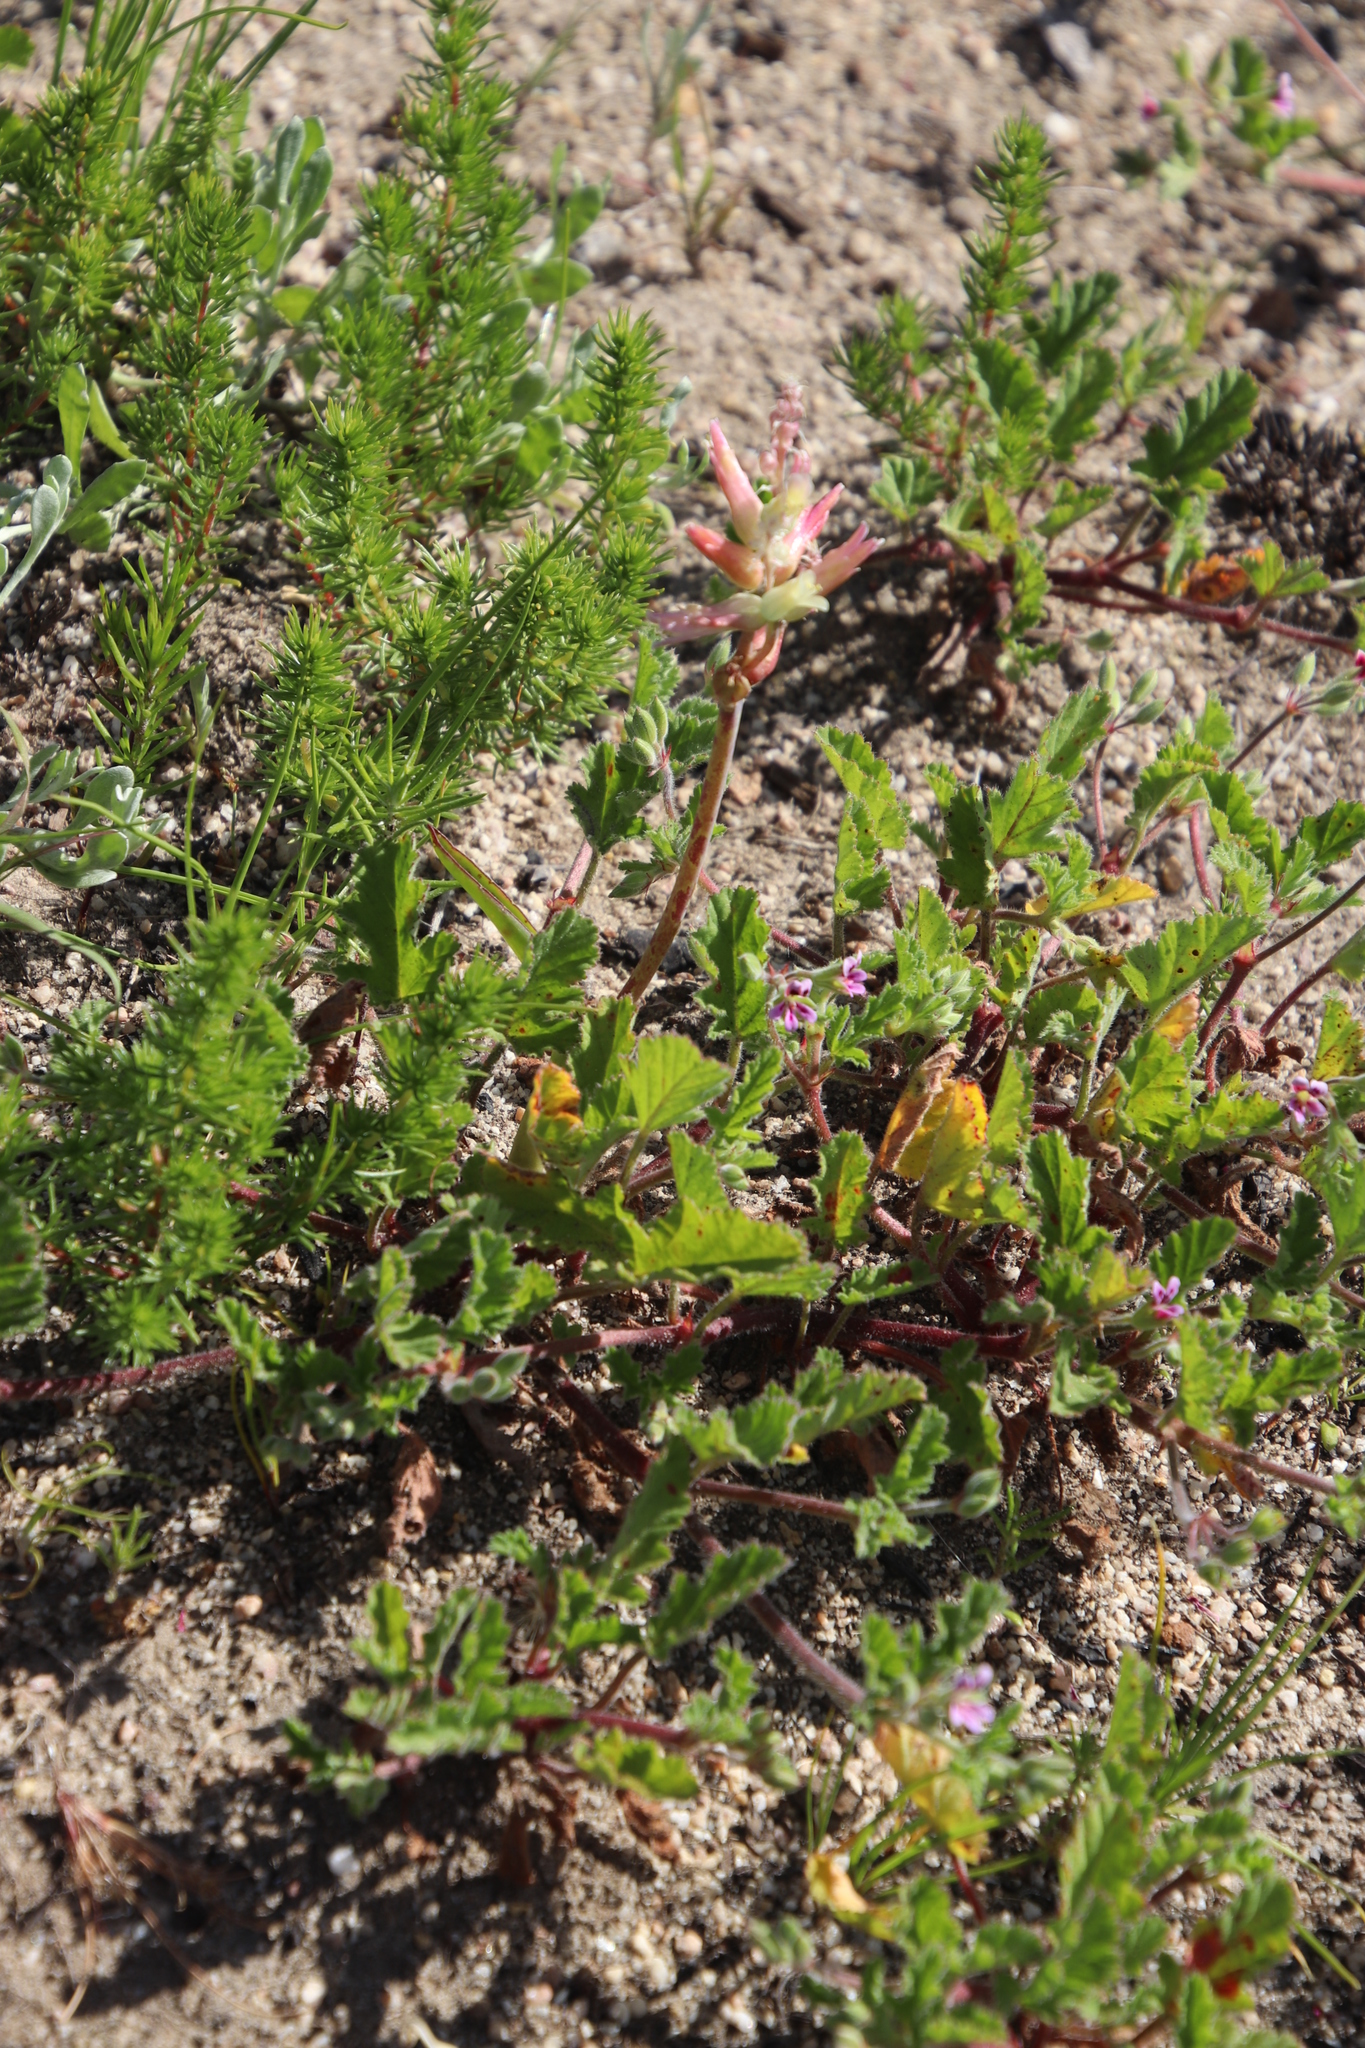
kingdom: Plantae
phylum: Tracheophyta
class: Liliopsida
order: Asparagales
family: Asparagaceae
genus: Lachenalia
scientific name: Lachenalia capensis
